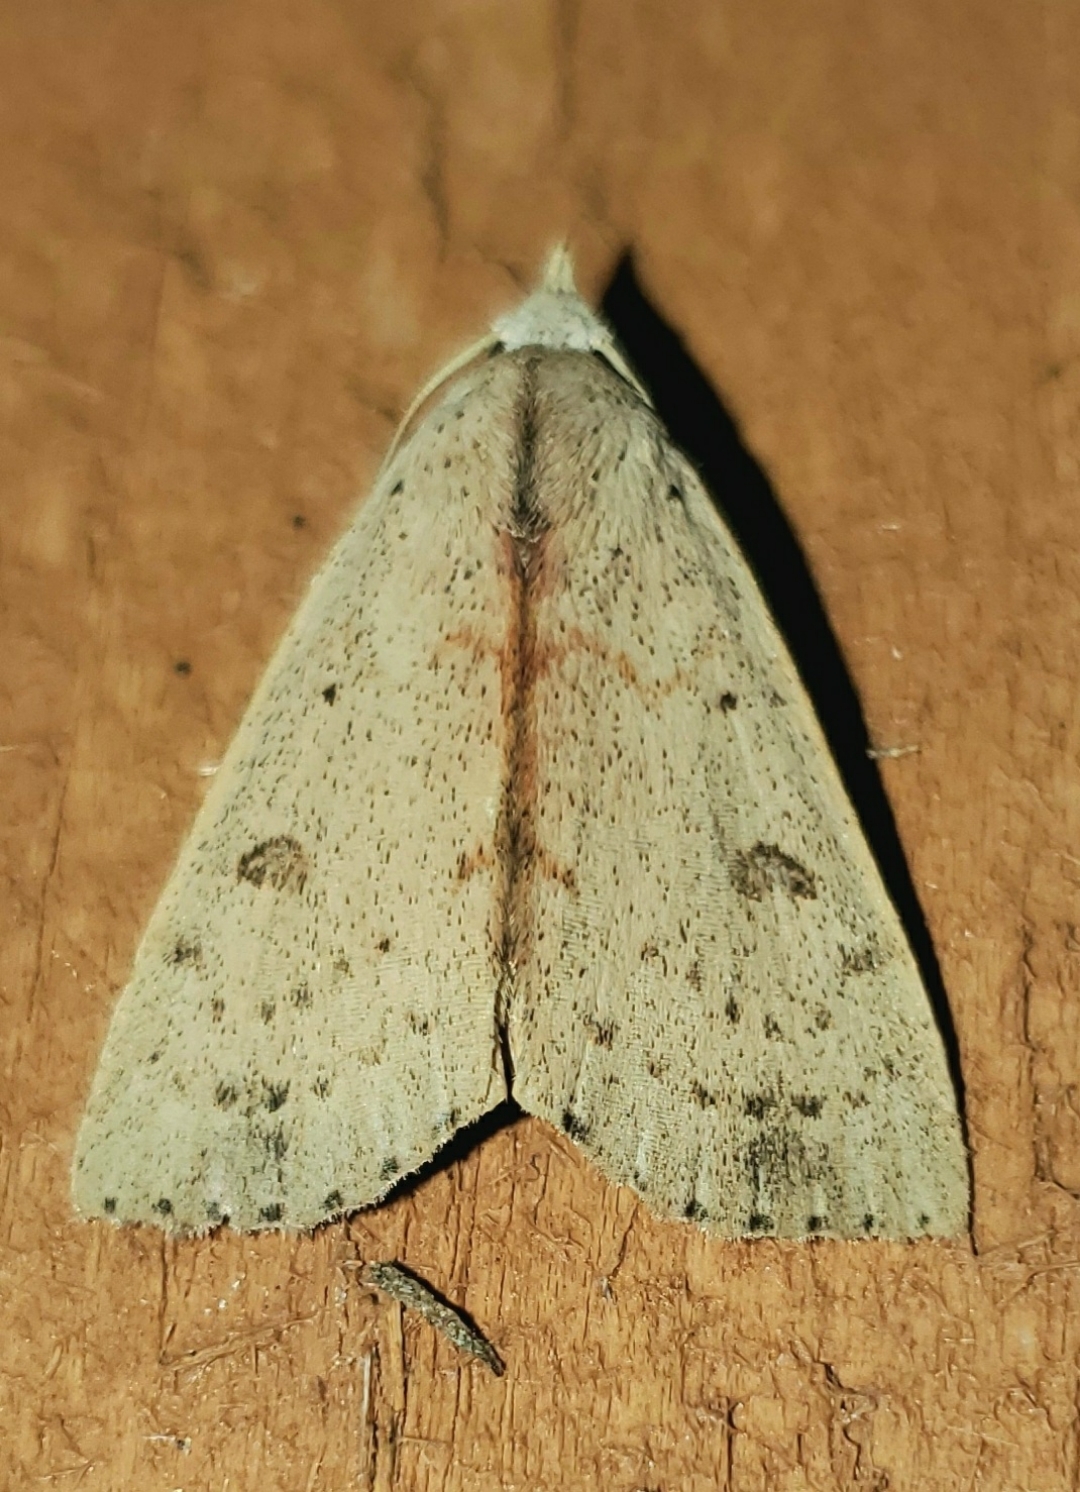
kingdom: Animalia
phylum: Arthropoda
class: Insecta
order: Lepidoptera
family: Erebidae
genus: Scolecocampa
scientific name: Scolecocampa liburna
